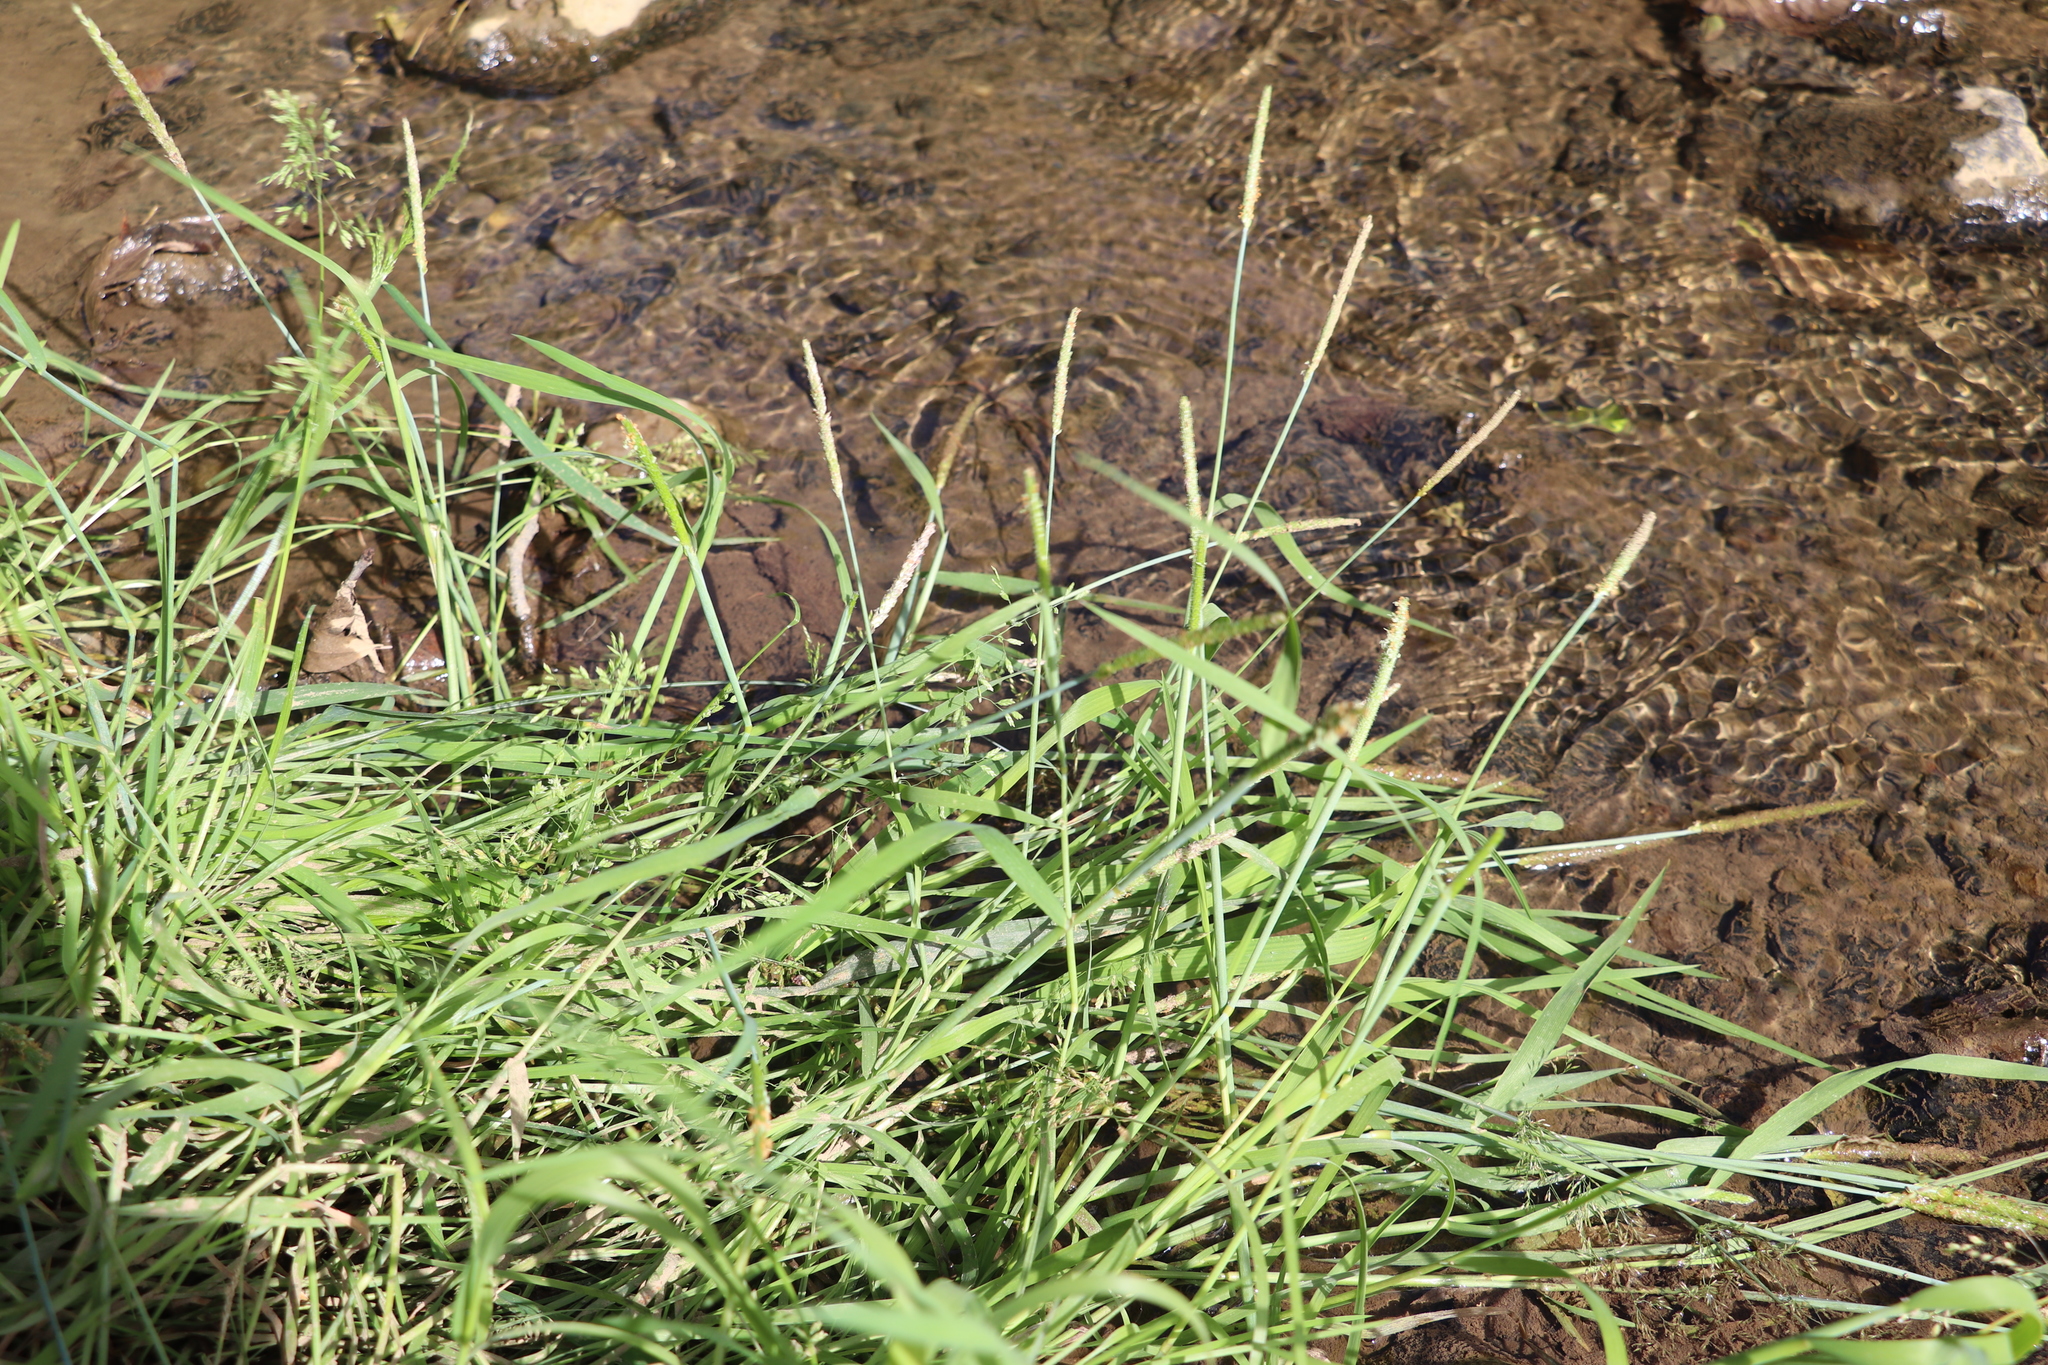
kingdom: Plantae
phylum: Tracheophyta
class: Liliopsida
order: Poales
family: Poaceae
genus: Alopecurus
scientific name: Alopecurus aequalis
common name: Orange foxtail
